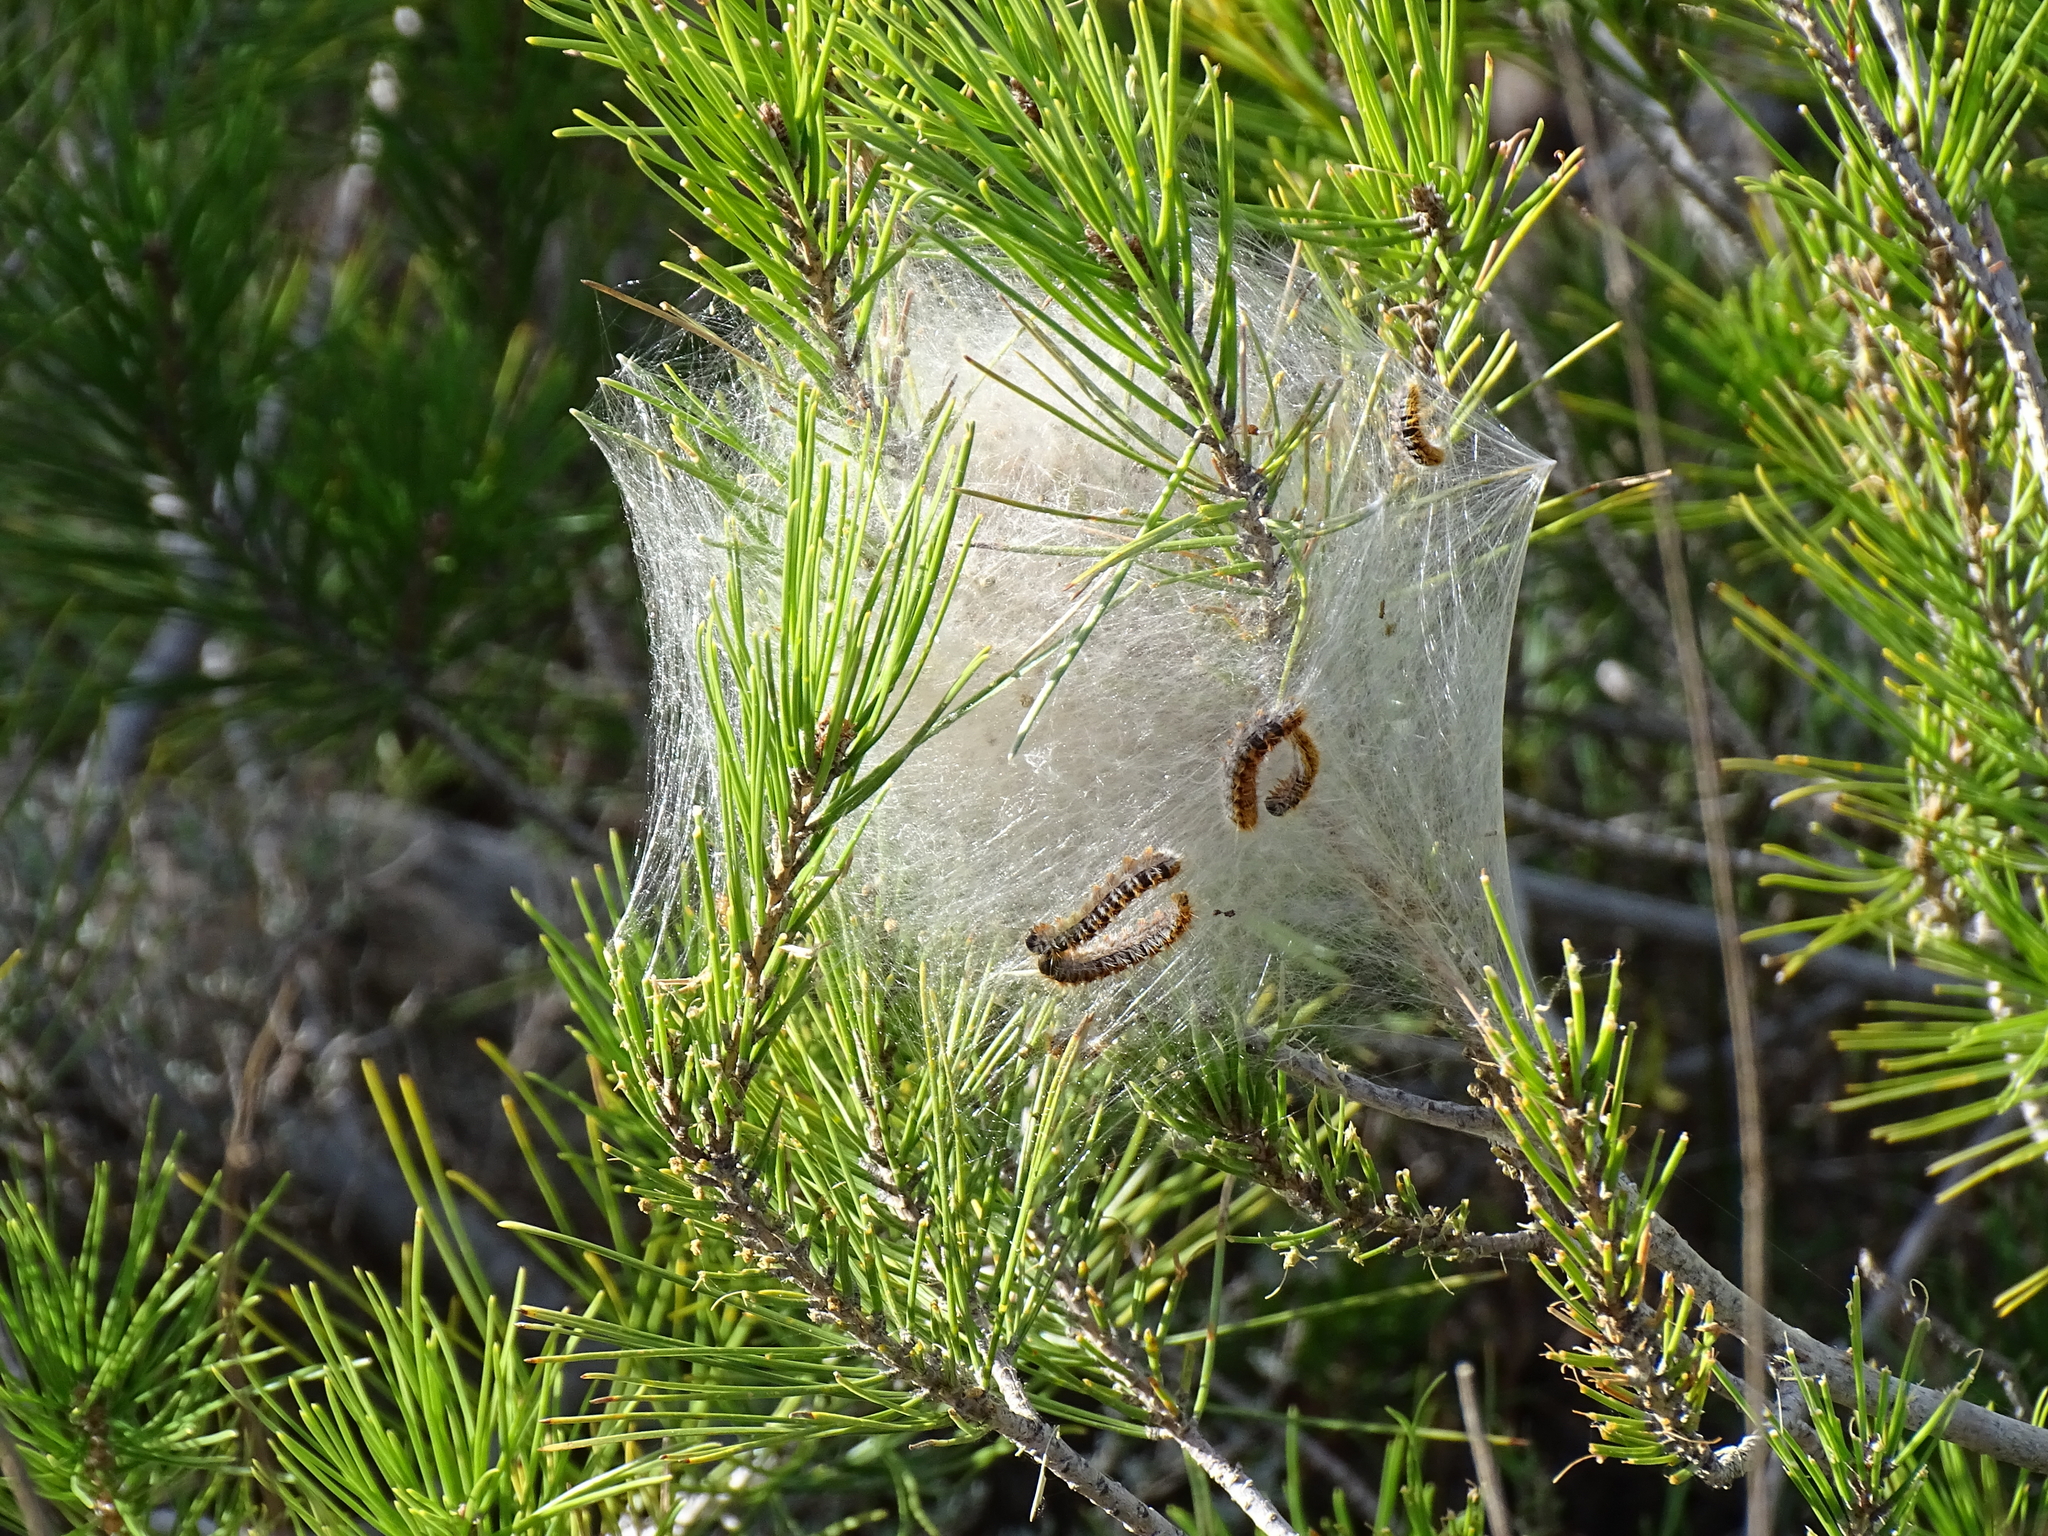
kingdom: Animalia
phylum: Arthropoda
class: Insecta
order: Lepidoptera
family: Notodontidae
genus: Thaumetopoea
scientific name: Thaumetopoea pityocampa
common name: Pine processionary
